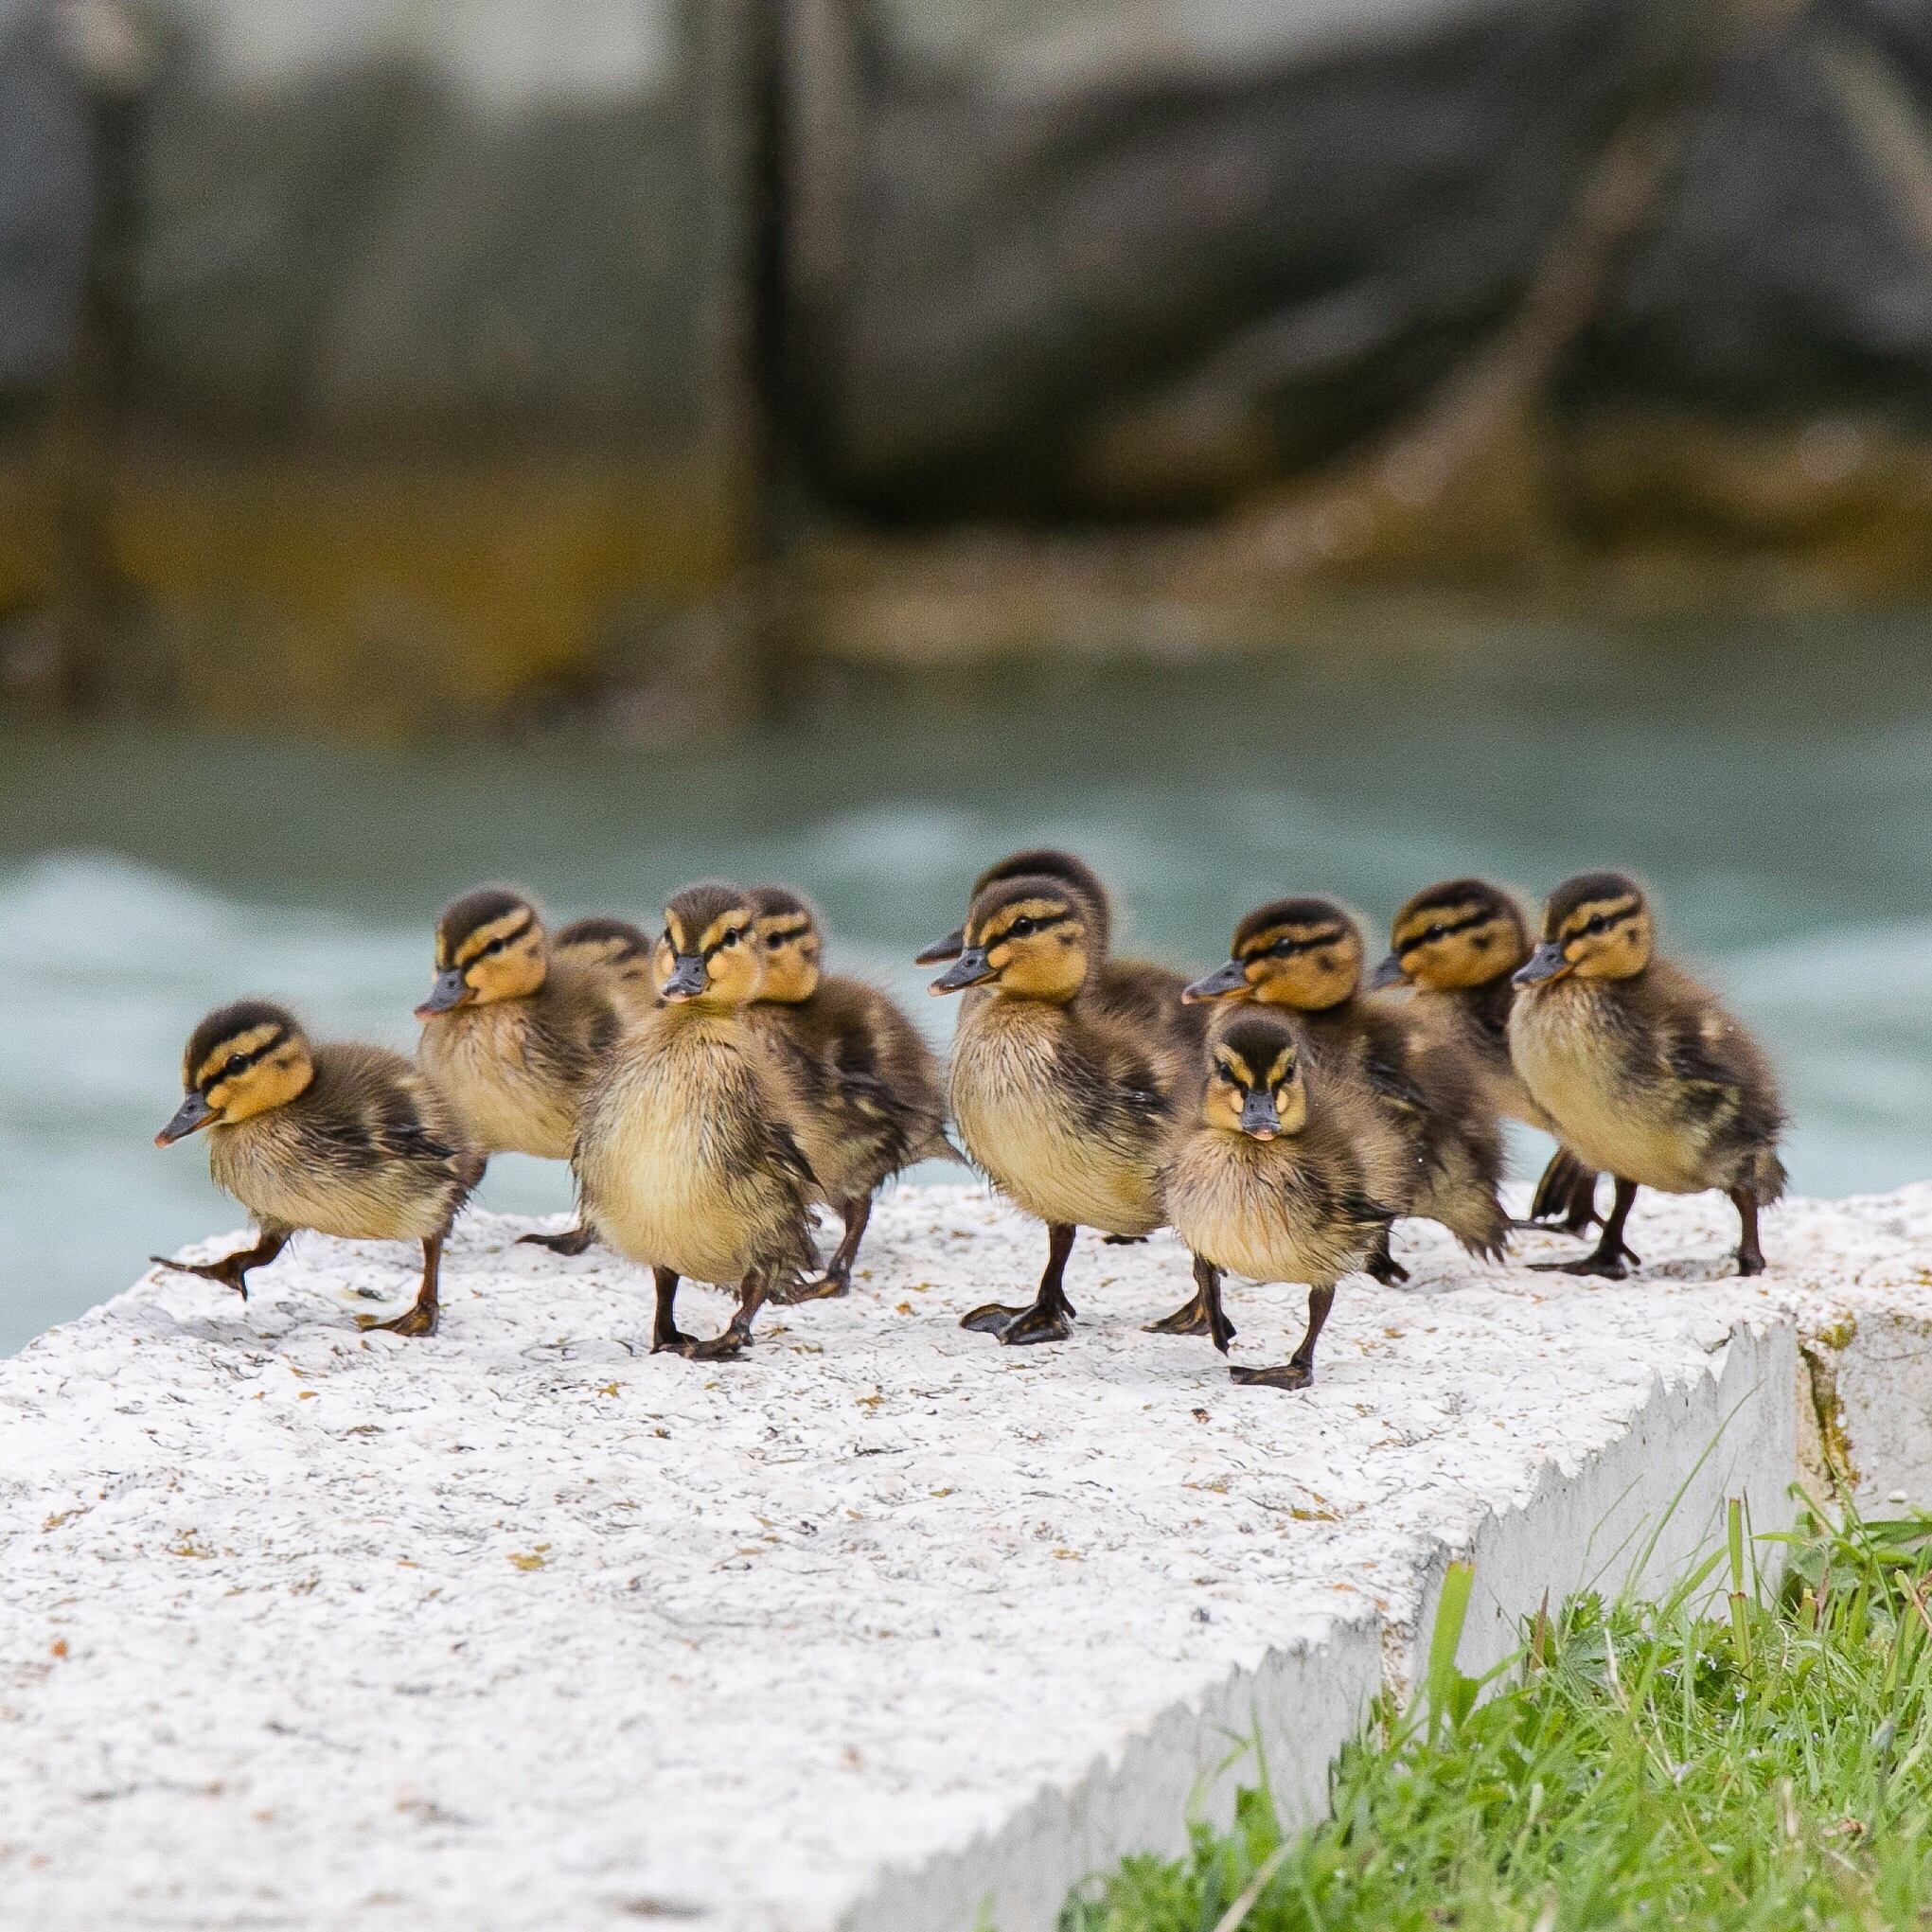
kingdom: Animalia
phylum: Chordata
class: Aves
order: Anseriformes
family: Anatidae
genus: Anas
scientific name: Anas platyrhynchos
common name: Mallard
